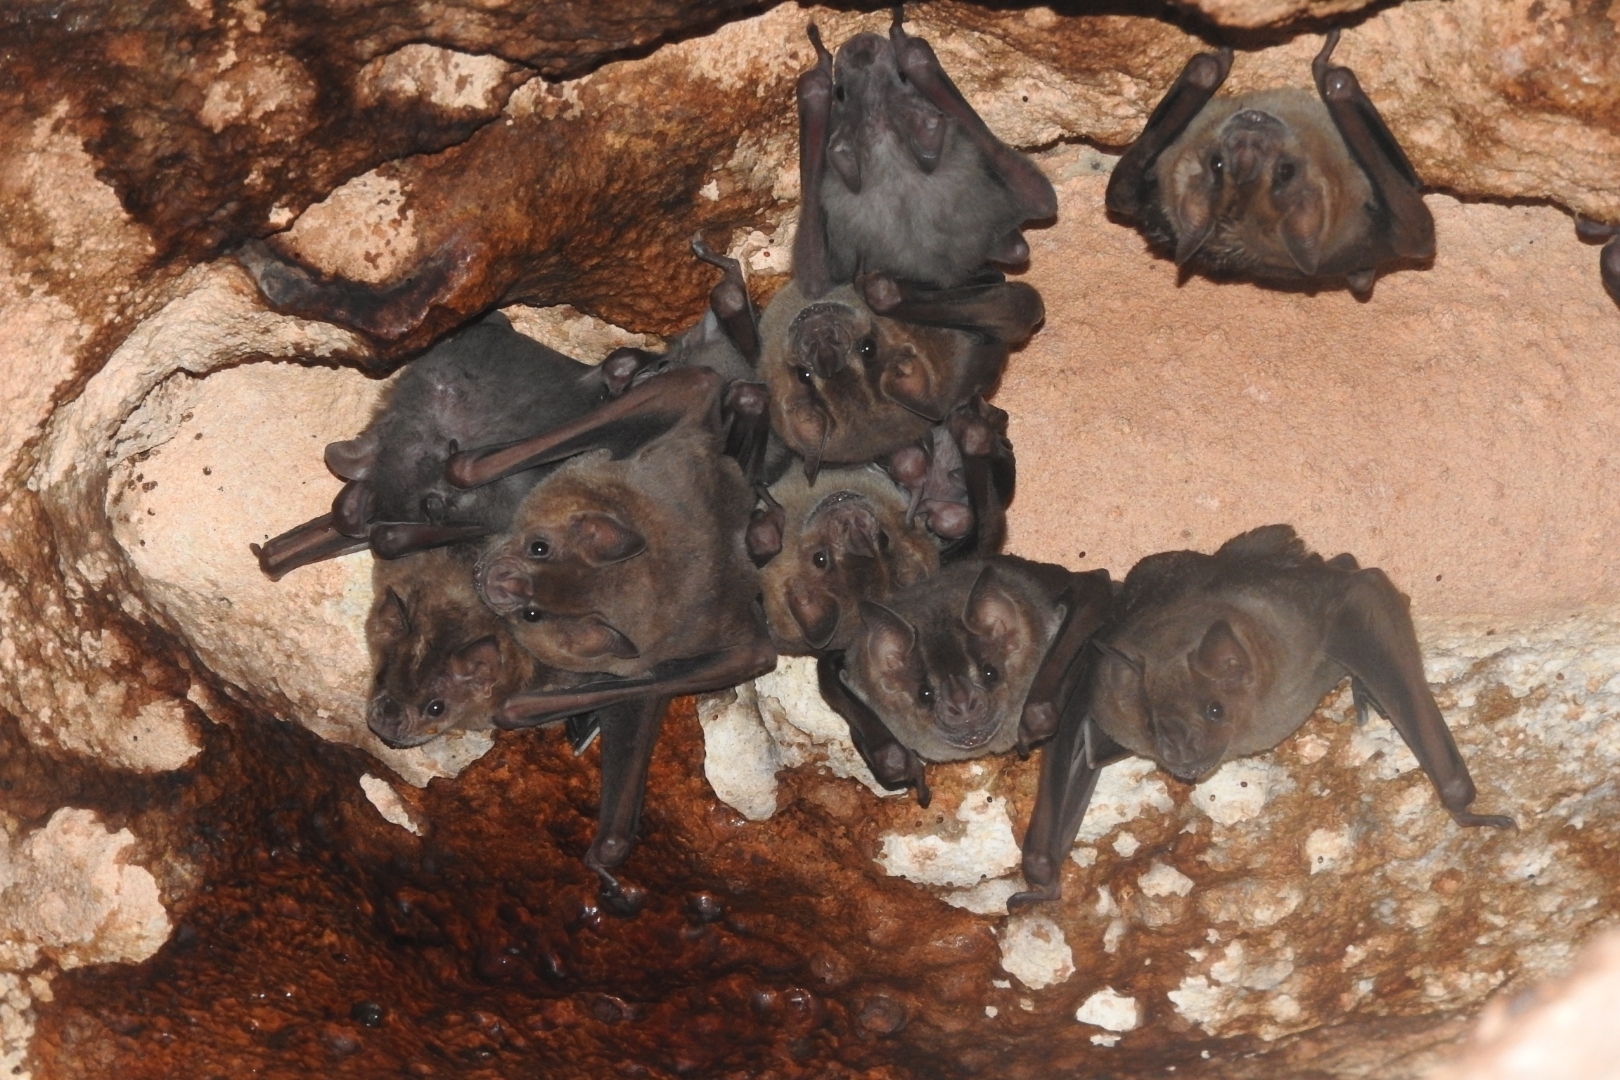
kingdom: Animalia
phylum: Chordata
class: Mammalia
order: Chiroptera
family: Phyllostomidae
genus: Artibeus
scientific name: Artibeus jamaicensis
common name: Jamaican fruit-eating bat
